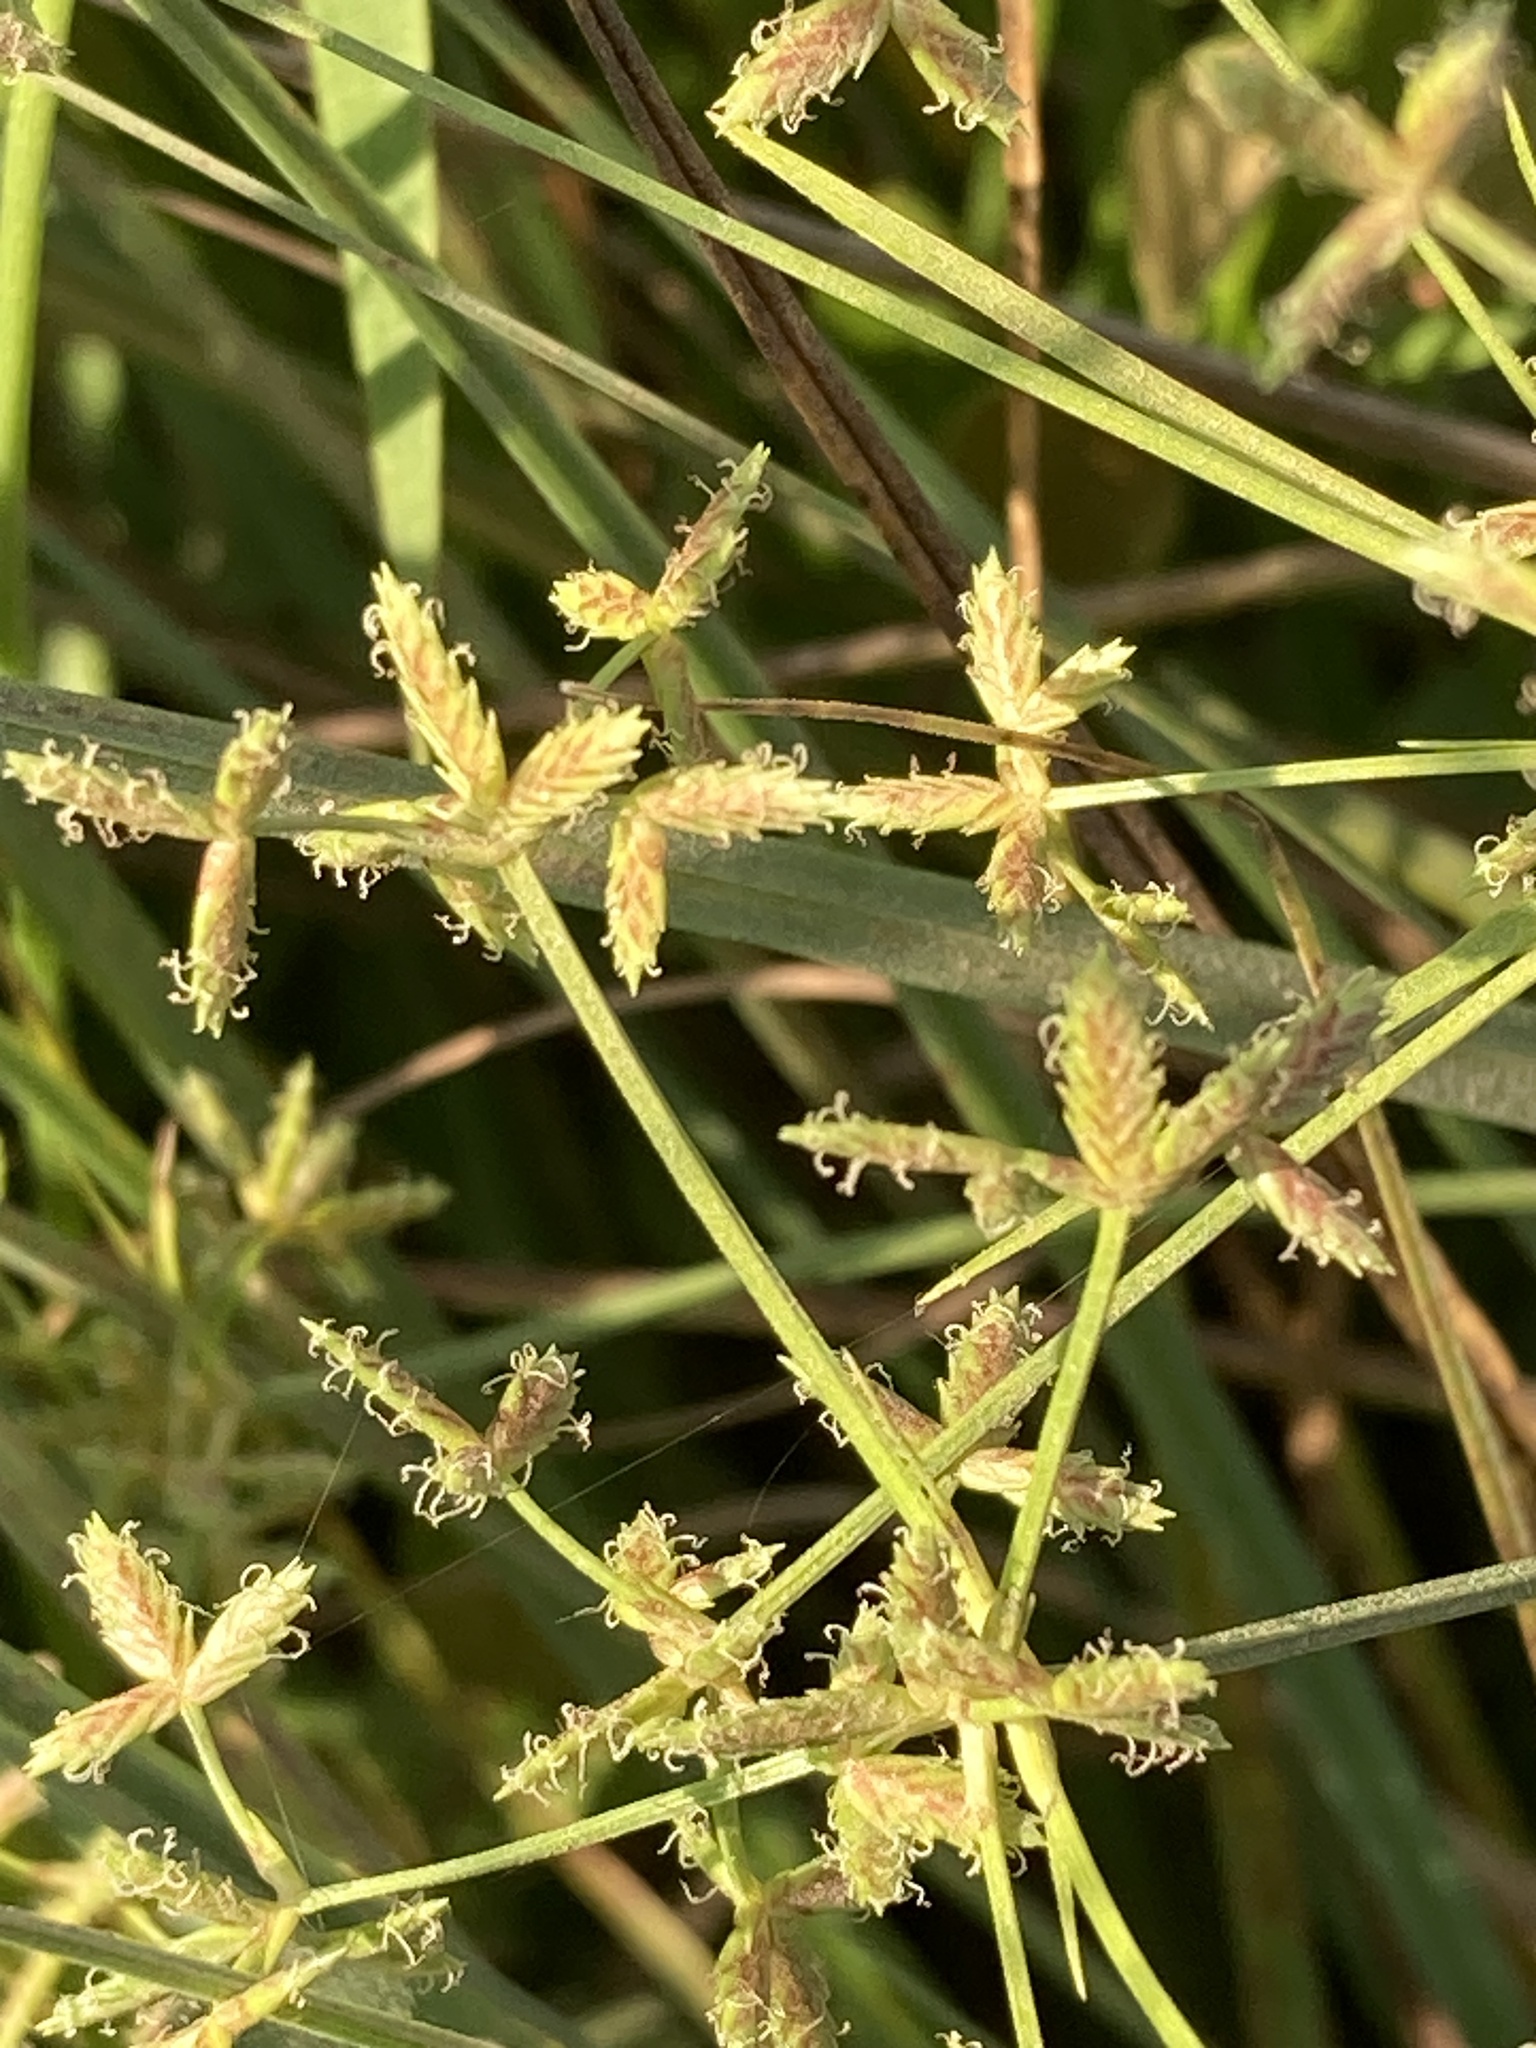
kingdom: Plantae
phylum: Tracheophyta
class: Liliopsida
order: Poales
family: Cyperaceae
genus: Cyperus
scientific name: Cyperus dentatus
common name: Dentate umbrella sedge
